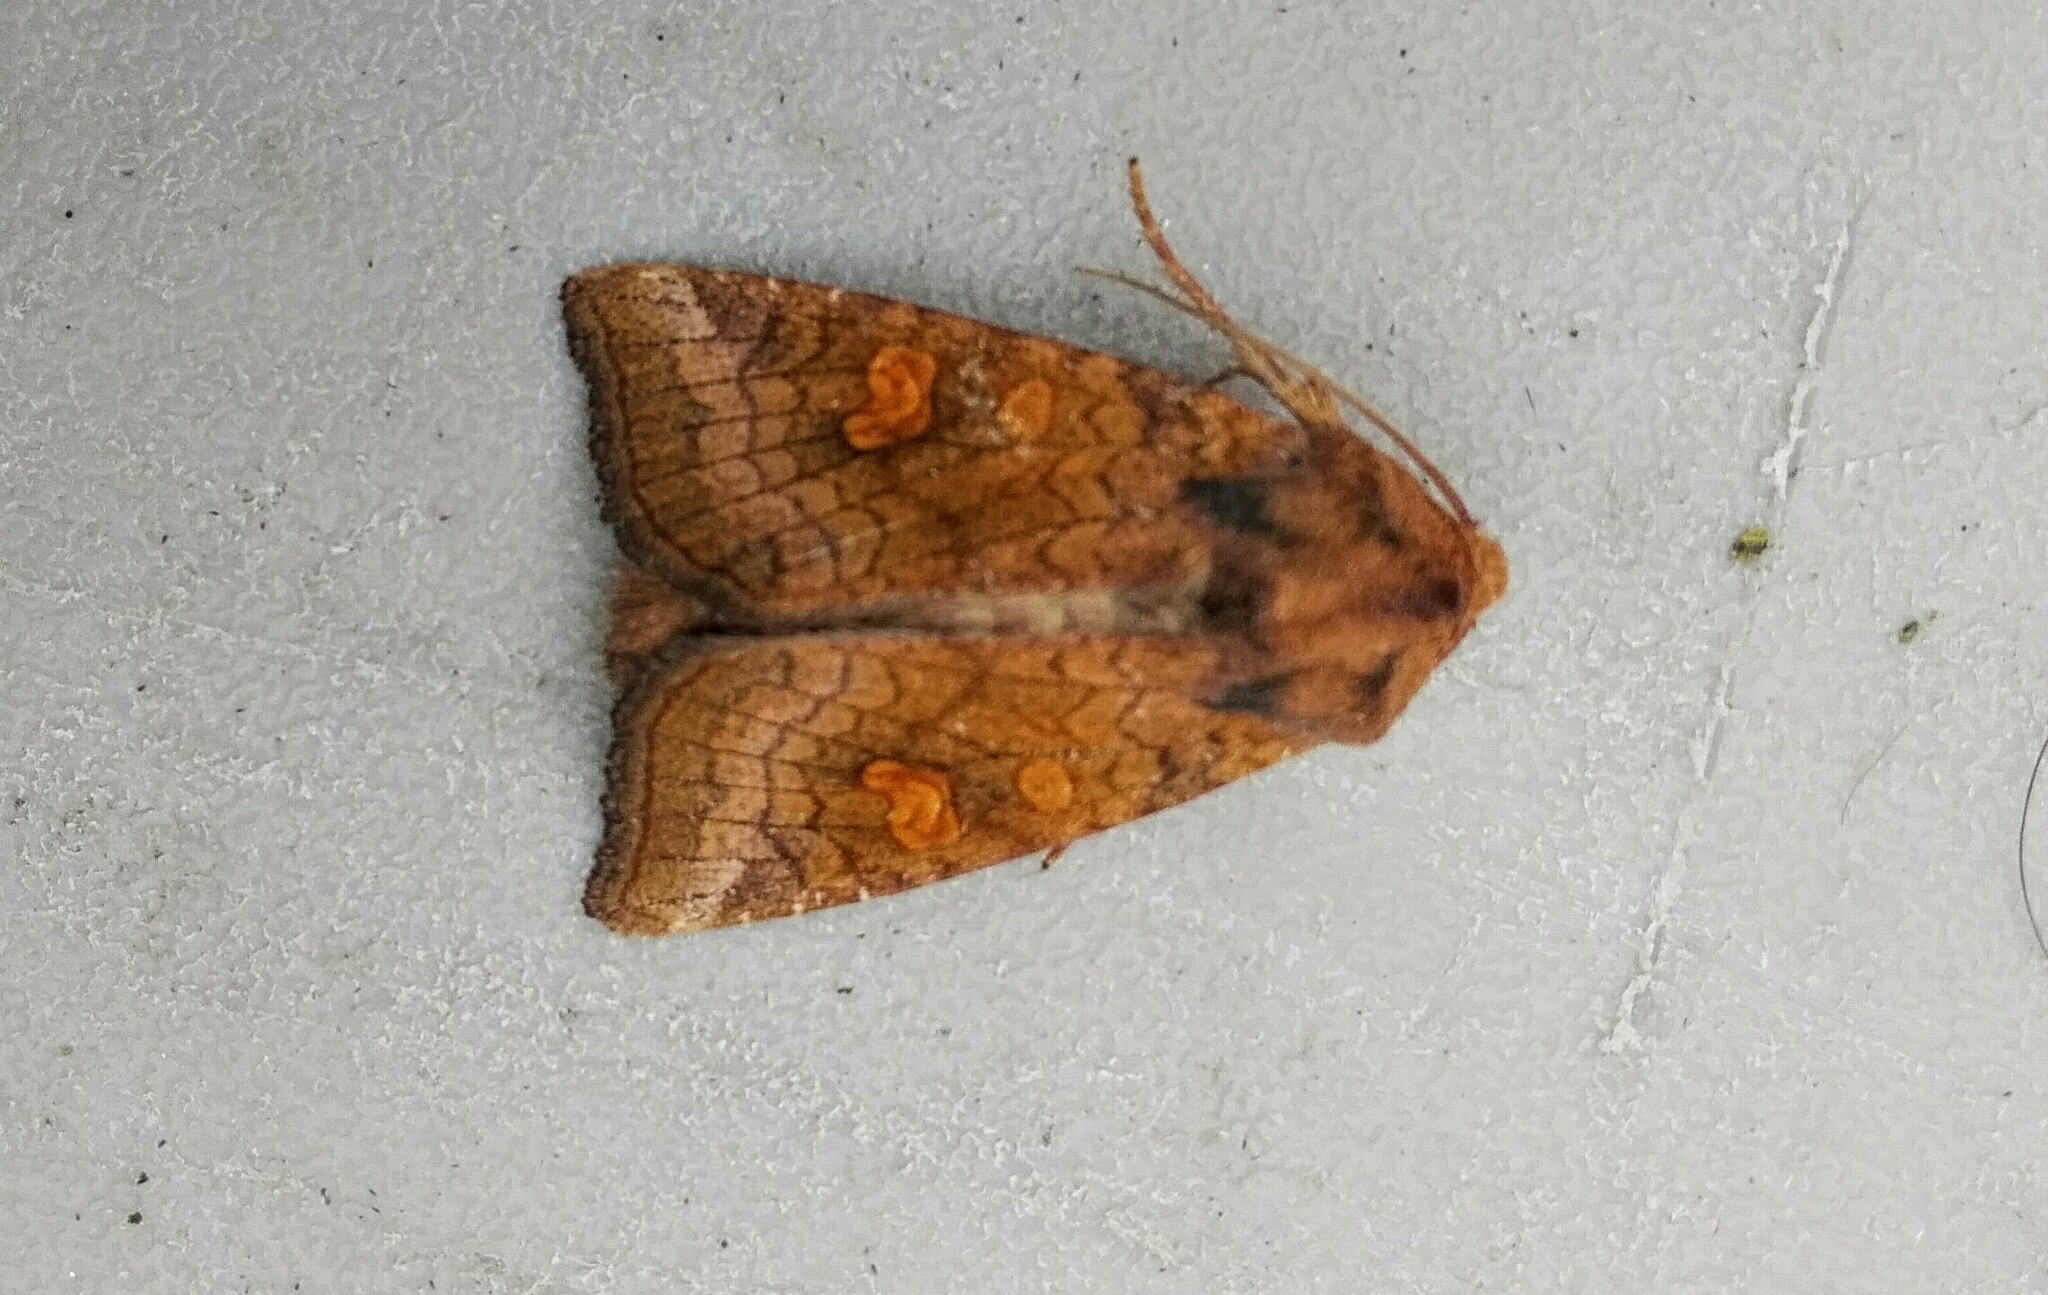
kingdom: Animalia
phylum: Arthropoda
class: Insecta
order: Lepidoptera
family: Noctuidae
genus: Amphipoea
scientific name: Amphipoea americana
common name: American ear moth
